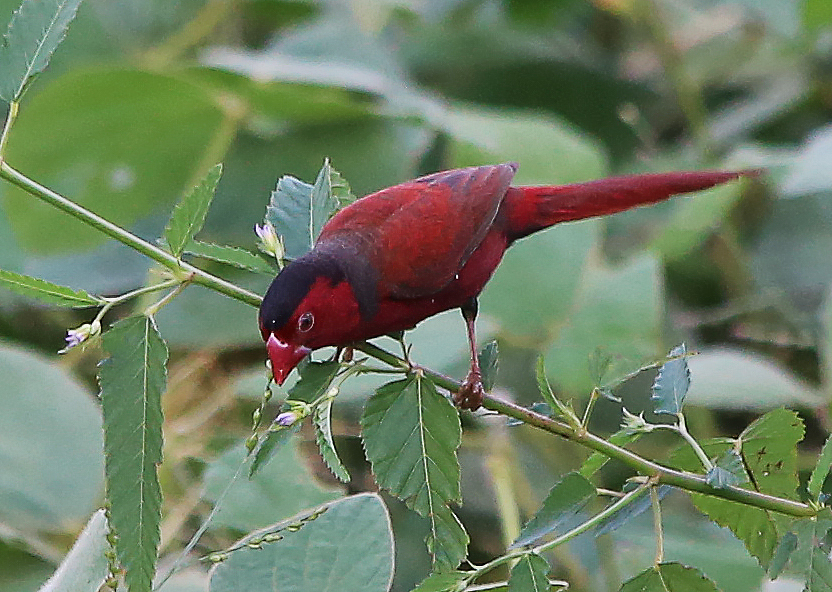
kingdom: Animalia
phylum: Chordata
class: Aves
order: Passeriformes
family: Estrildidae
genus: Neochmia
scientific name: Neochmia phaeton
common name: Crimson finch
